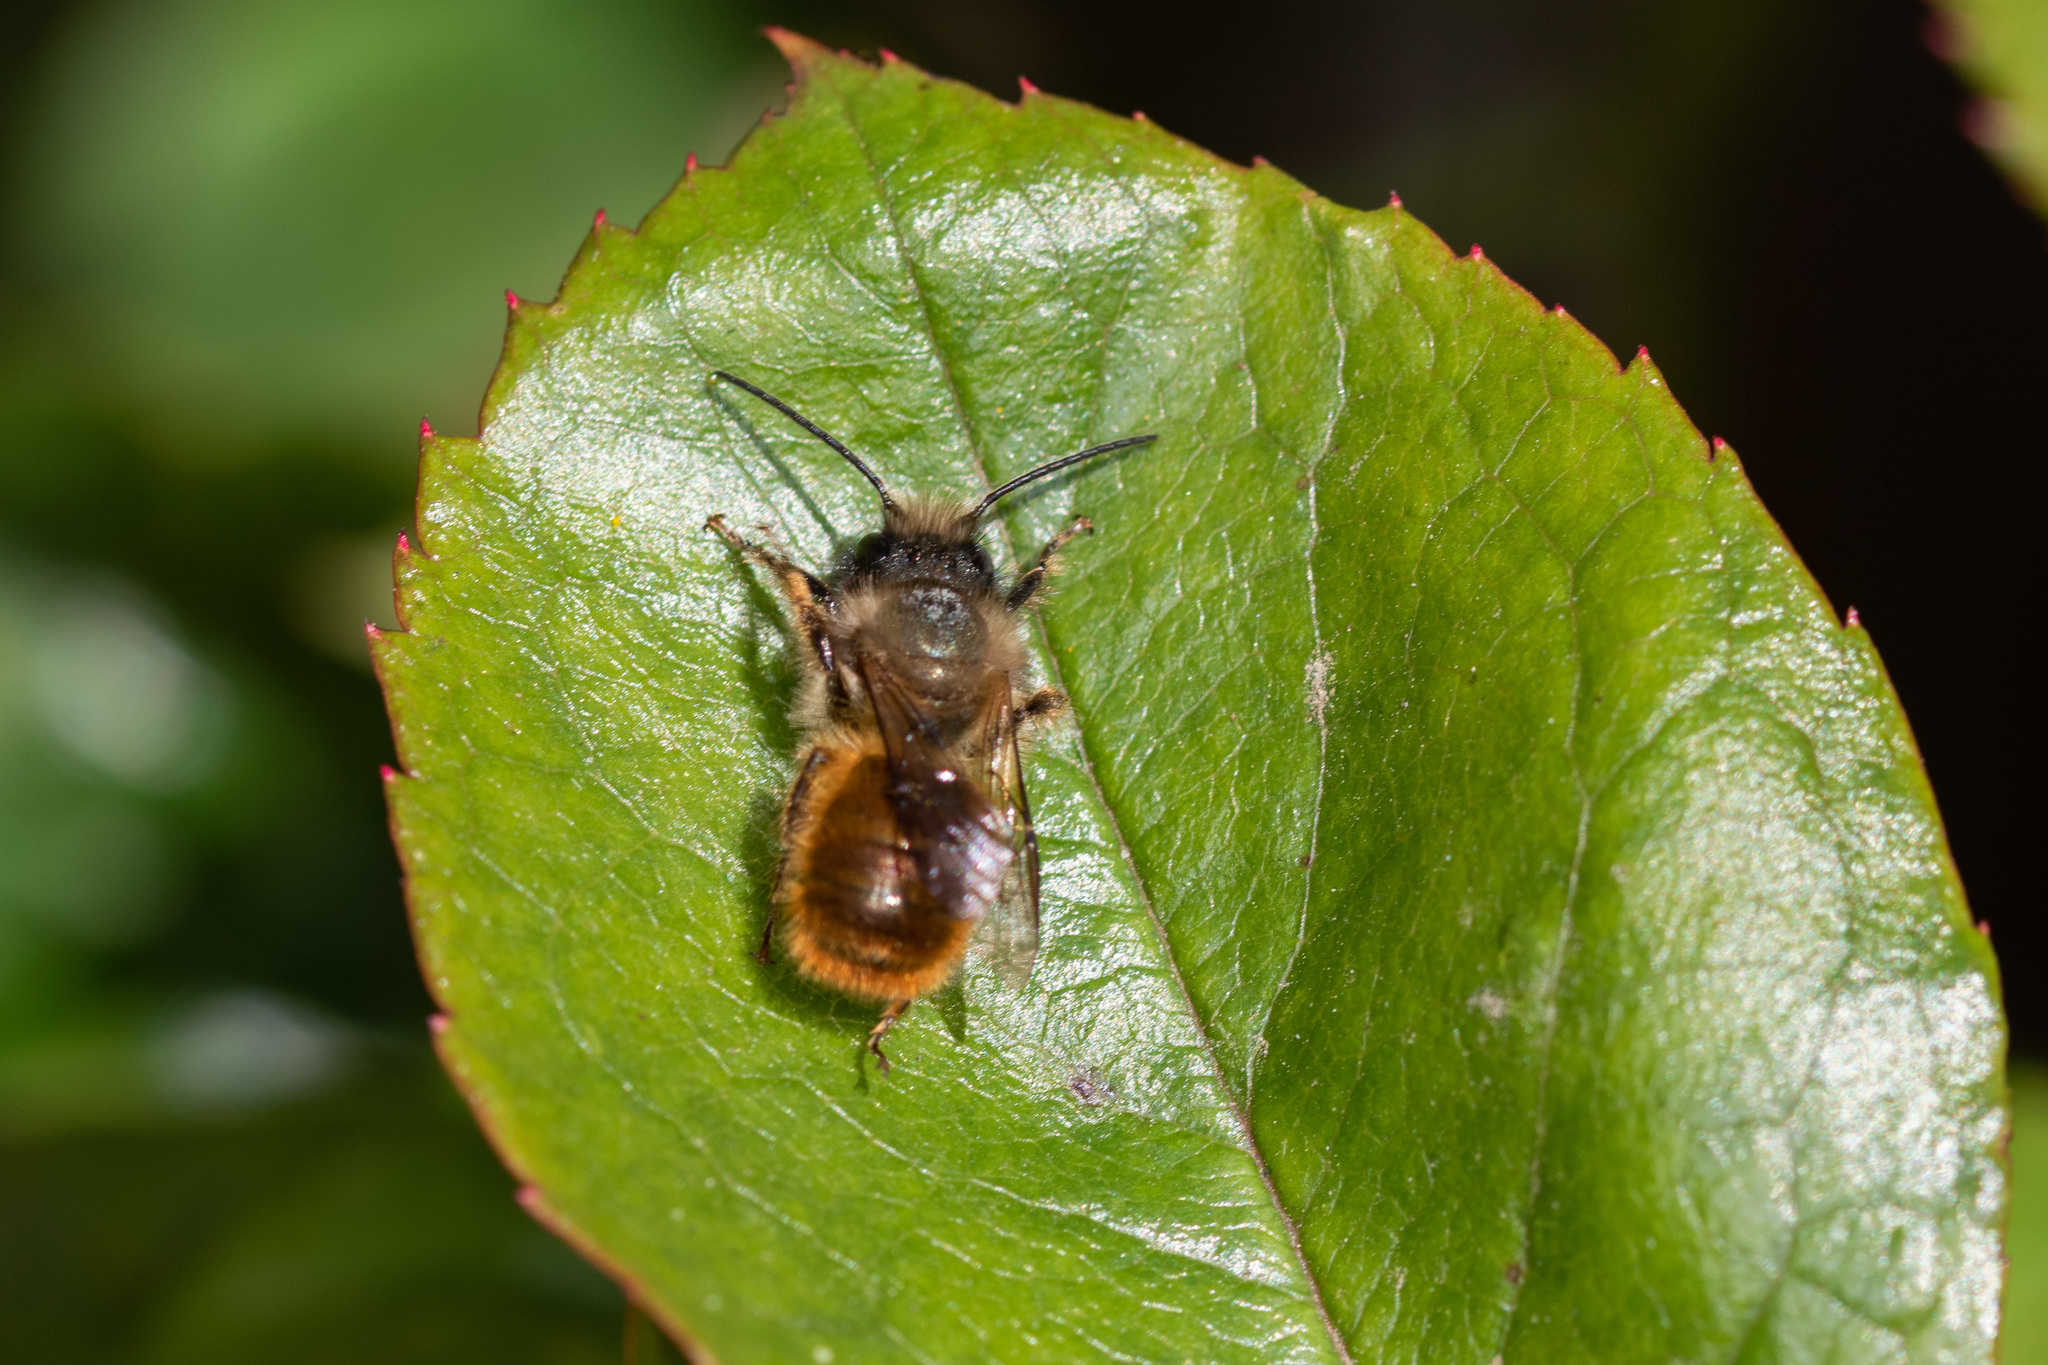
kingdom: Animalia
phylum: Arthropoda
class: Insecta
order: Hymenoptera
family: Megachilidae
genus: Osmia
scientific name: Osmia bicornis
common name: Red mason bee
